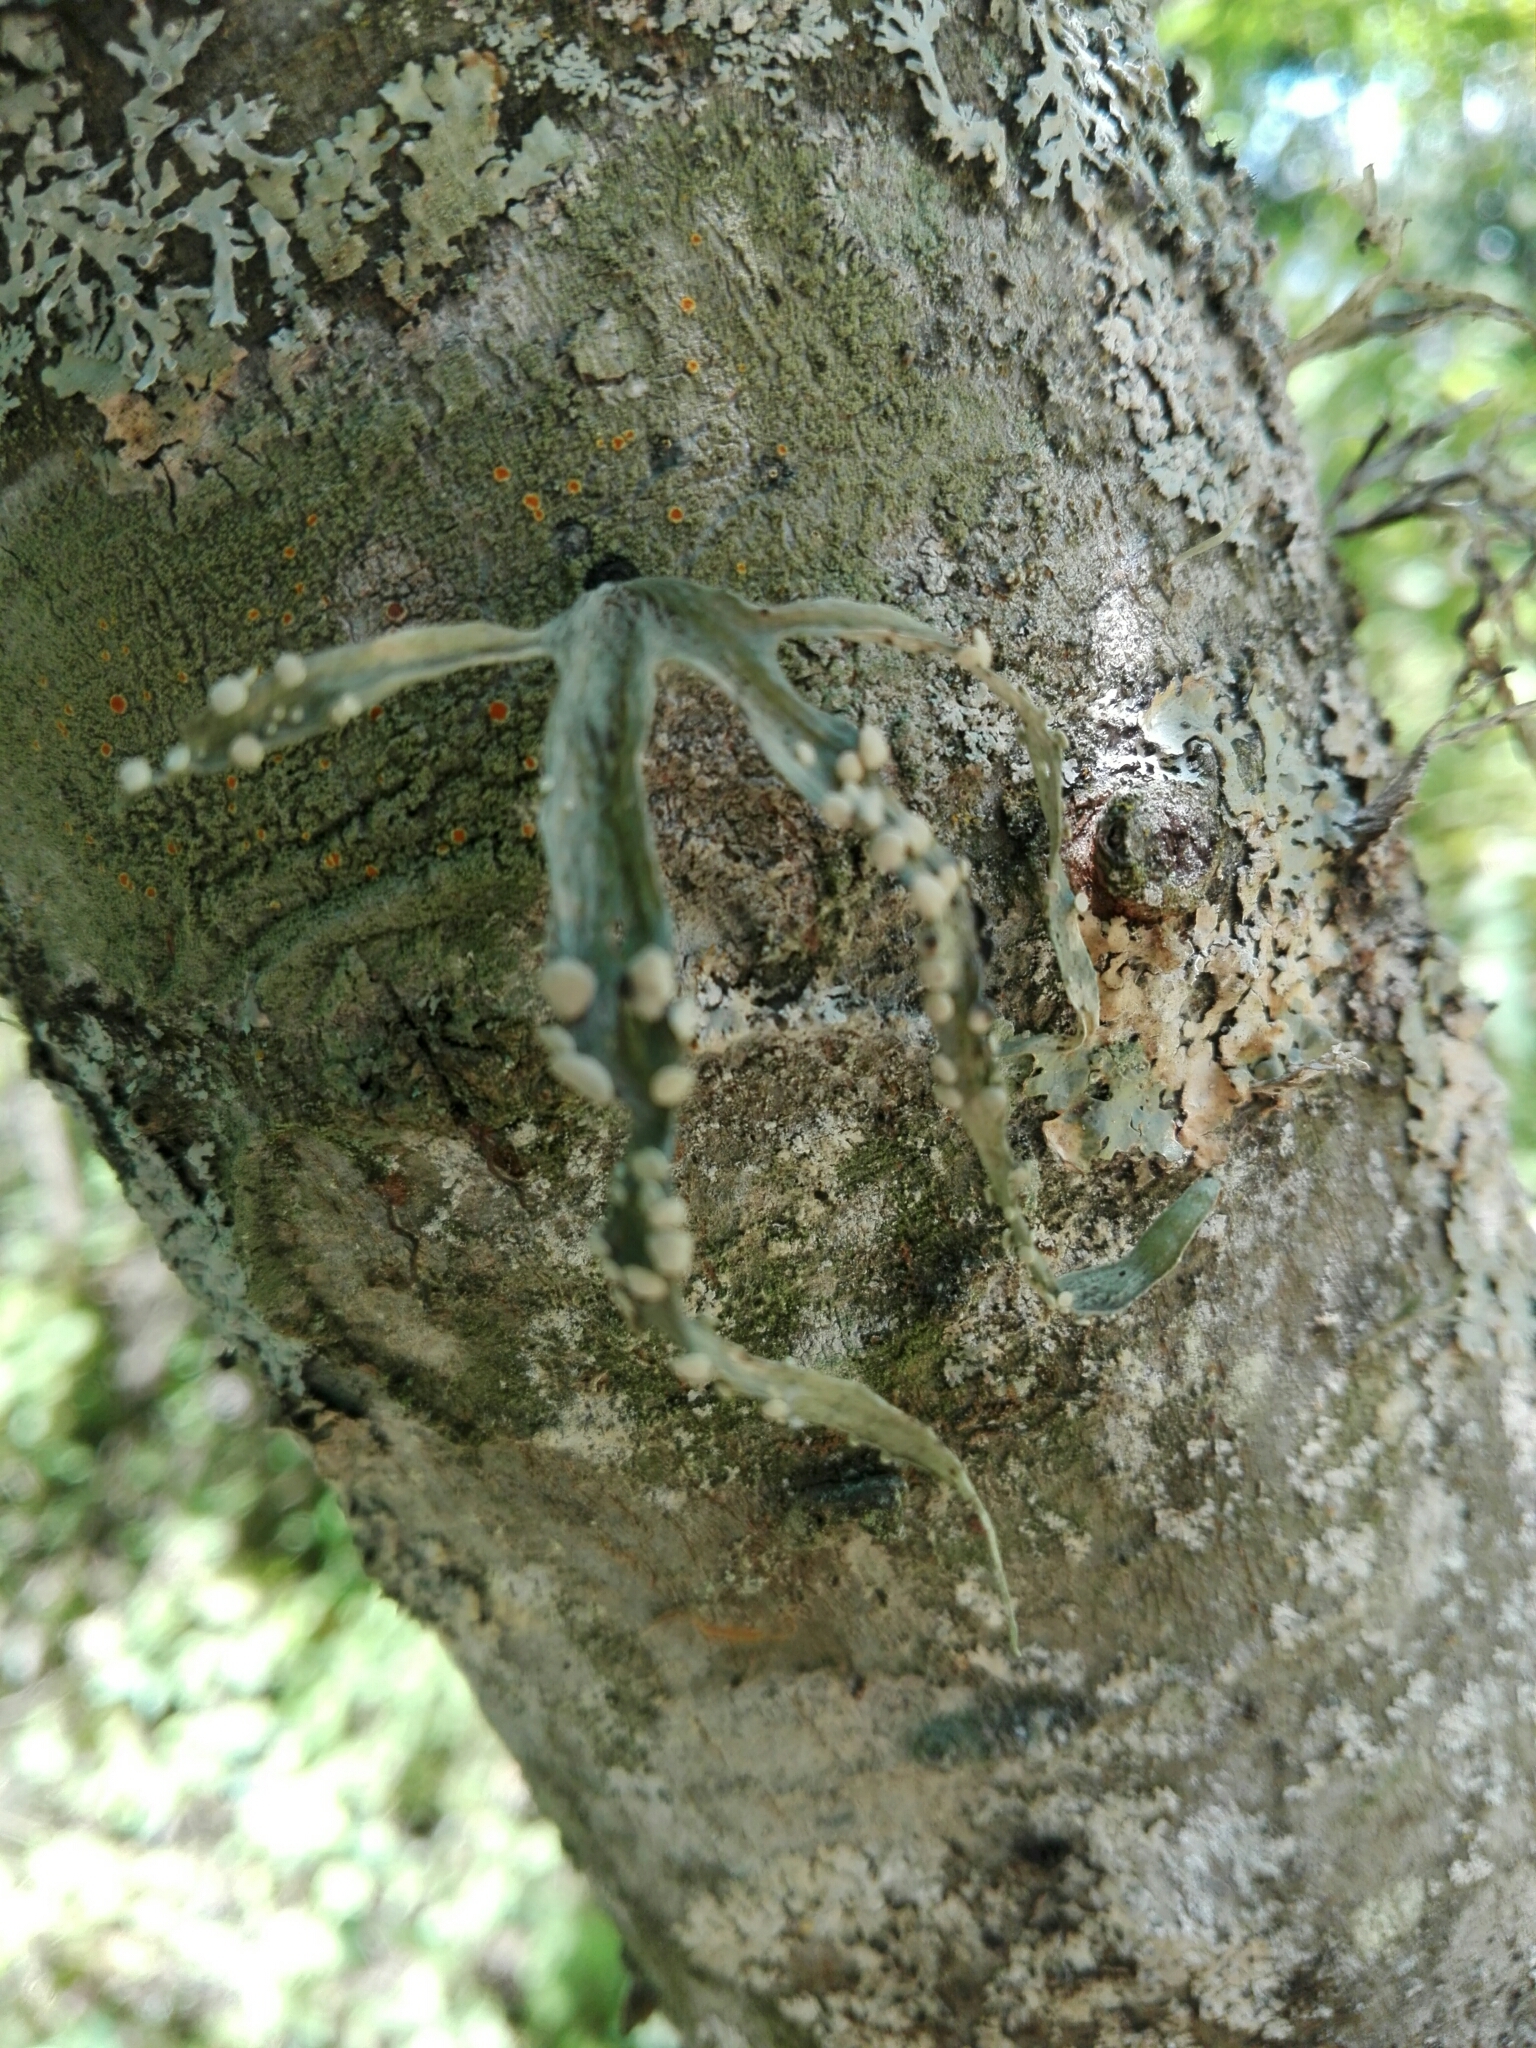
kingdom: Fungi
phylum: Ascomycota
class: Lecanoromycetes
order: Lecanorales
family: Ramalinaceae
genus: Ramalina
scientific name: Ramalina celastri
